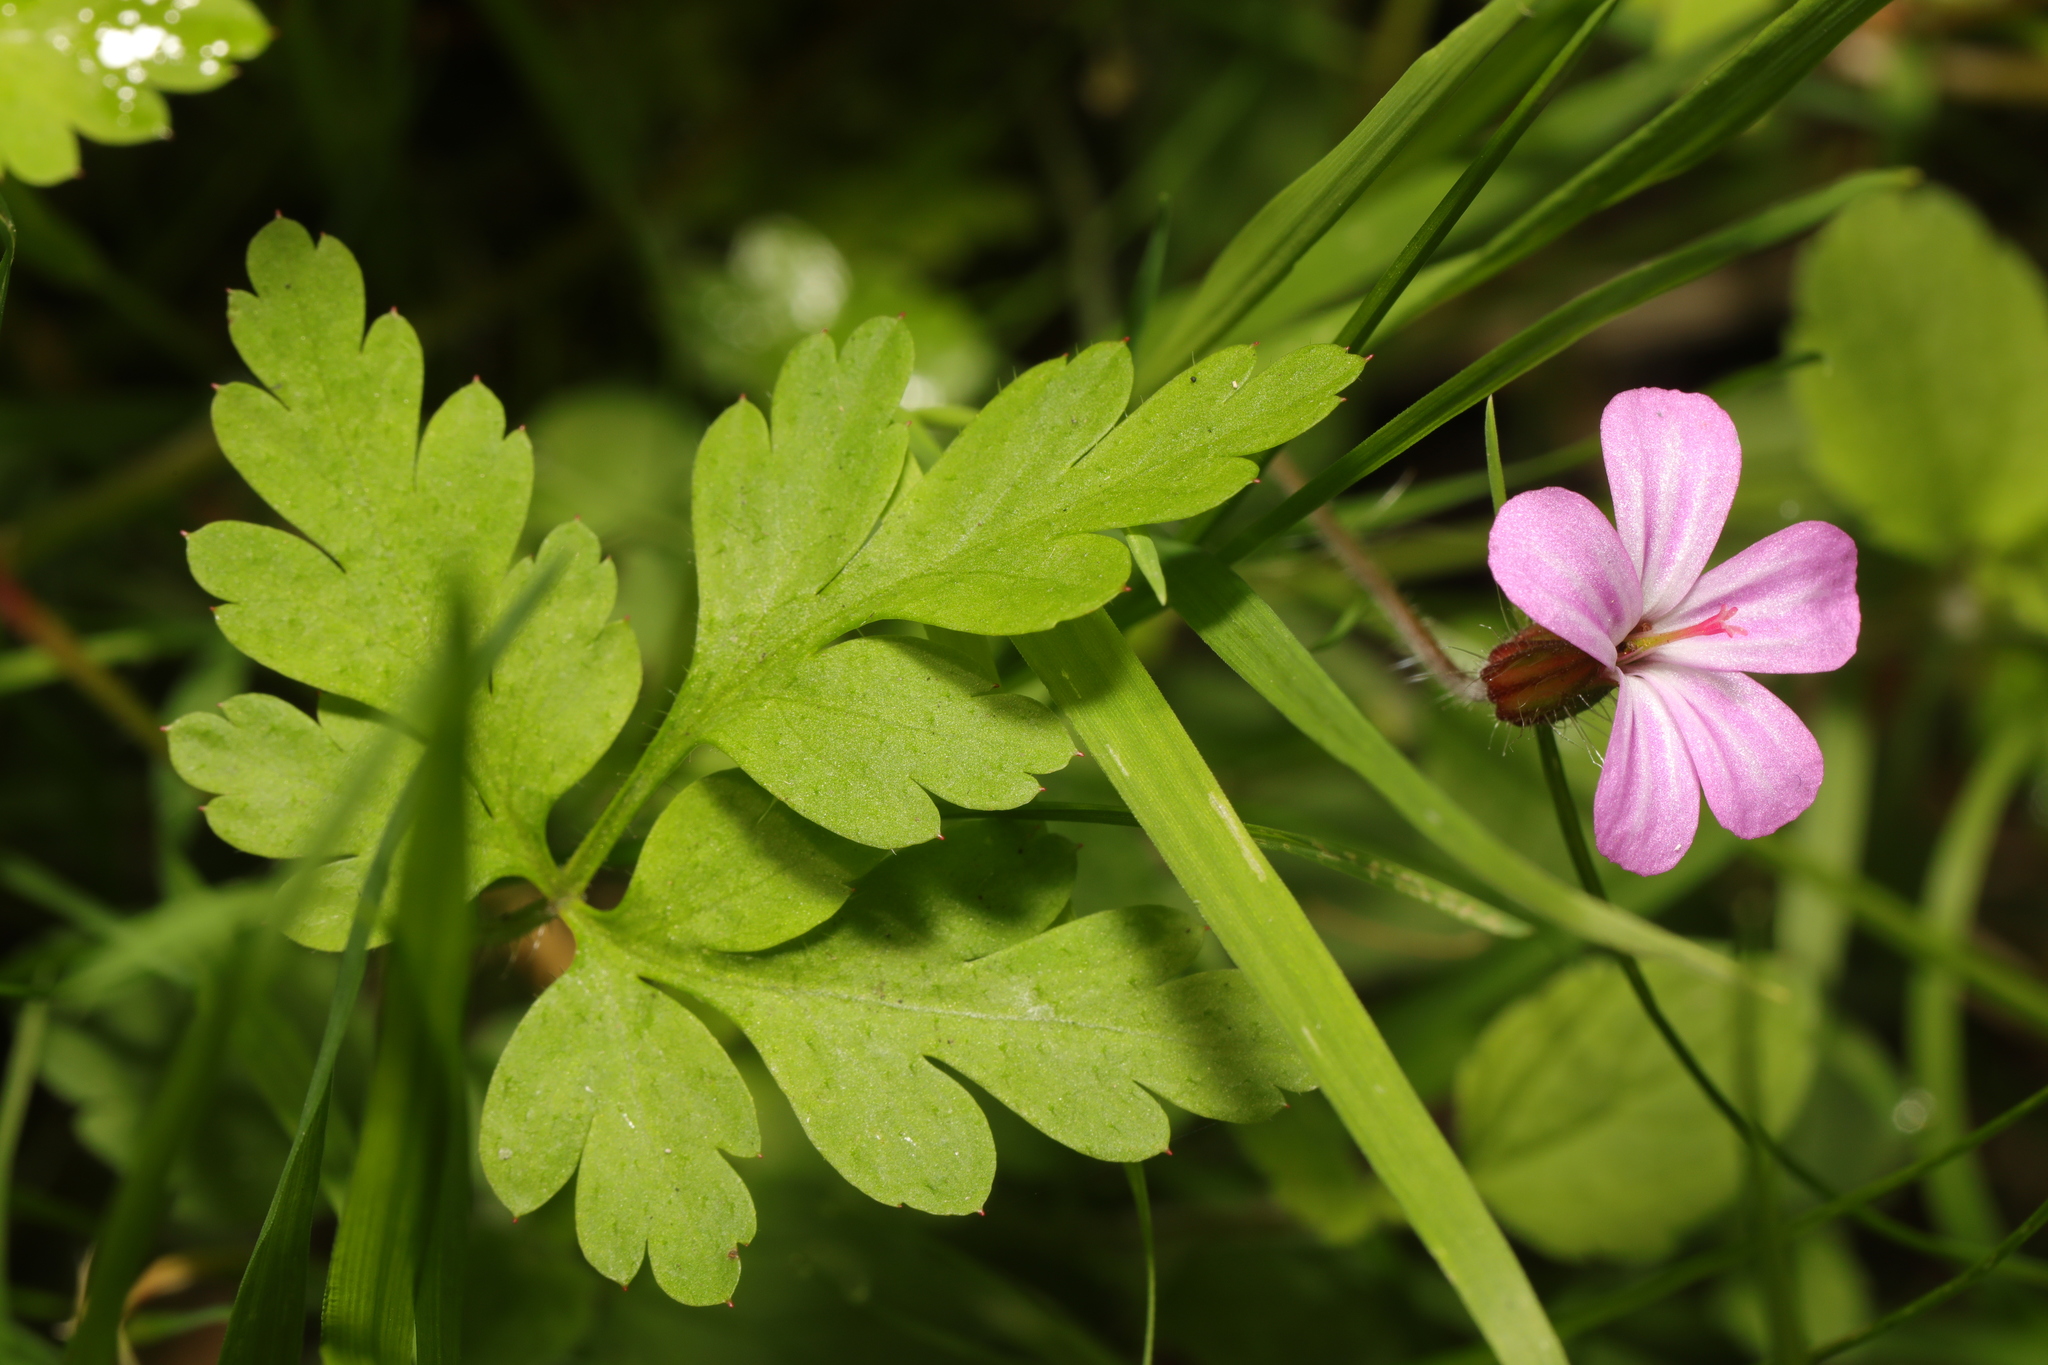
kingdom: Plantae
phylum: Tracheophyta
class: Magnoliopsida
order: Geraniales
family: Geraniaceae
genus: Geranium
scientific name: Geranium robertianum
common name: Herb-robert
